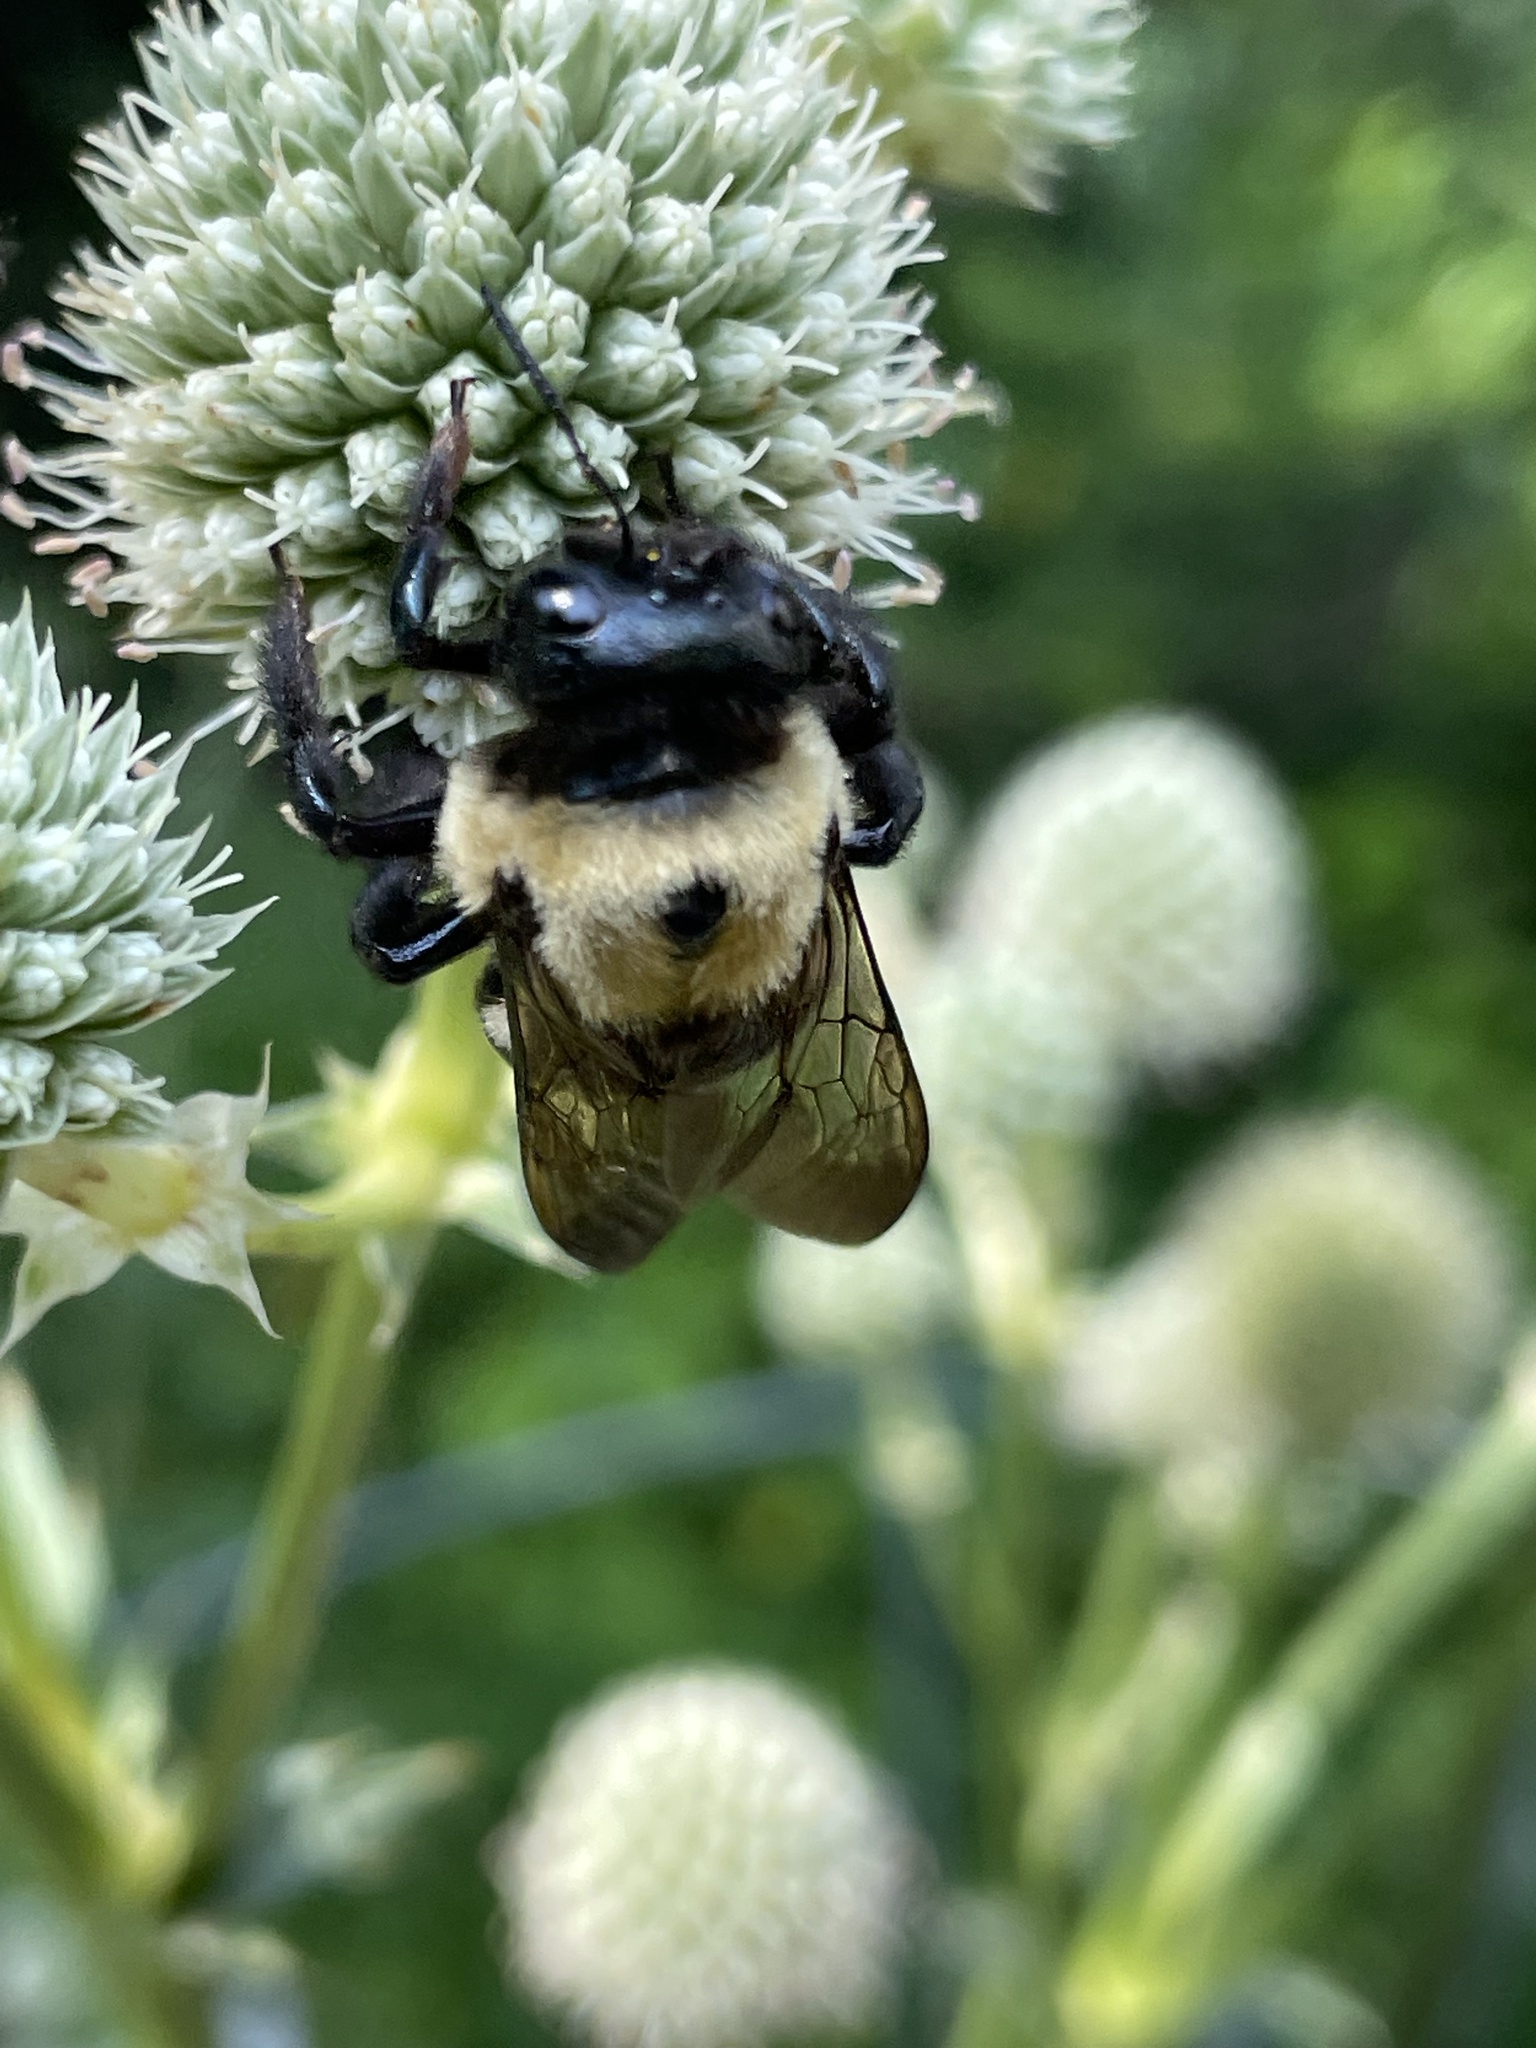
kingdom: Animalia
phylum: Arthropoda
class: Insecta
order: Hymenoptera
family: Apidae
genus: Xylocopa
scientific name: Xylocopa virginica
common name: Carpenter bee
